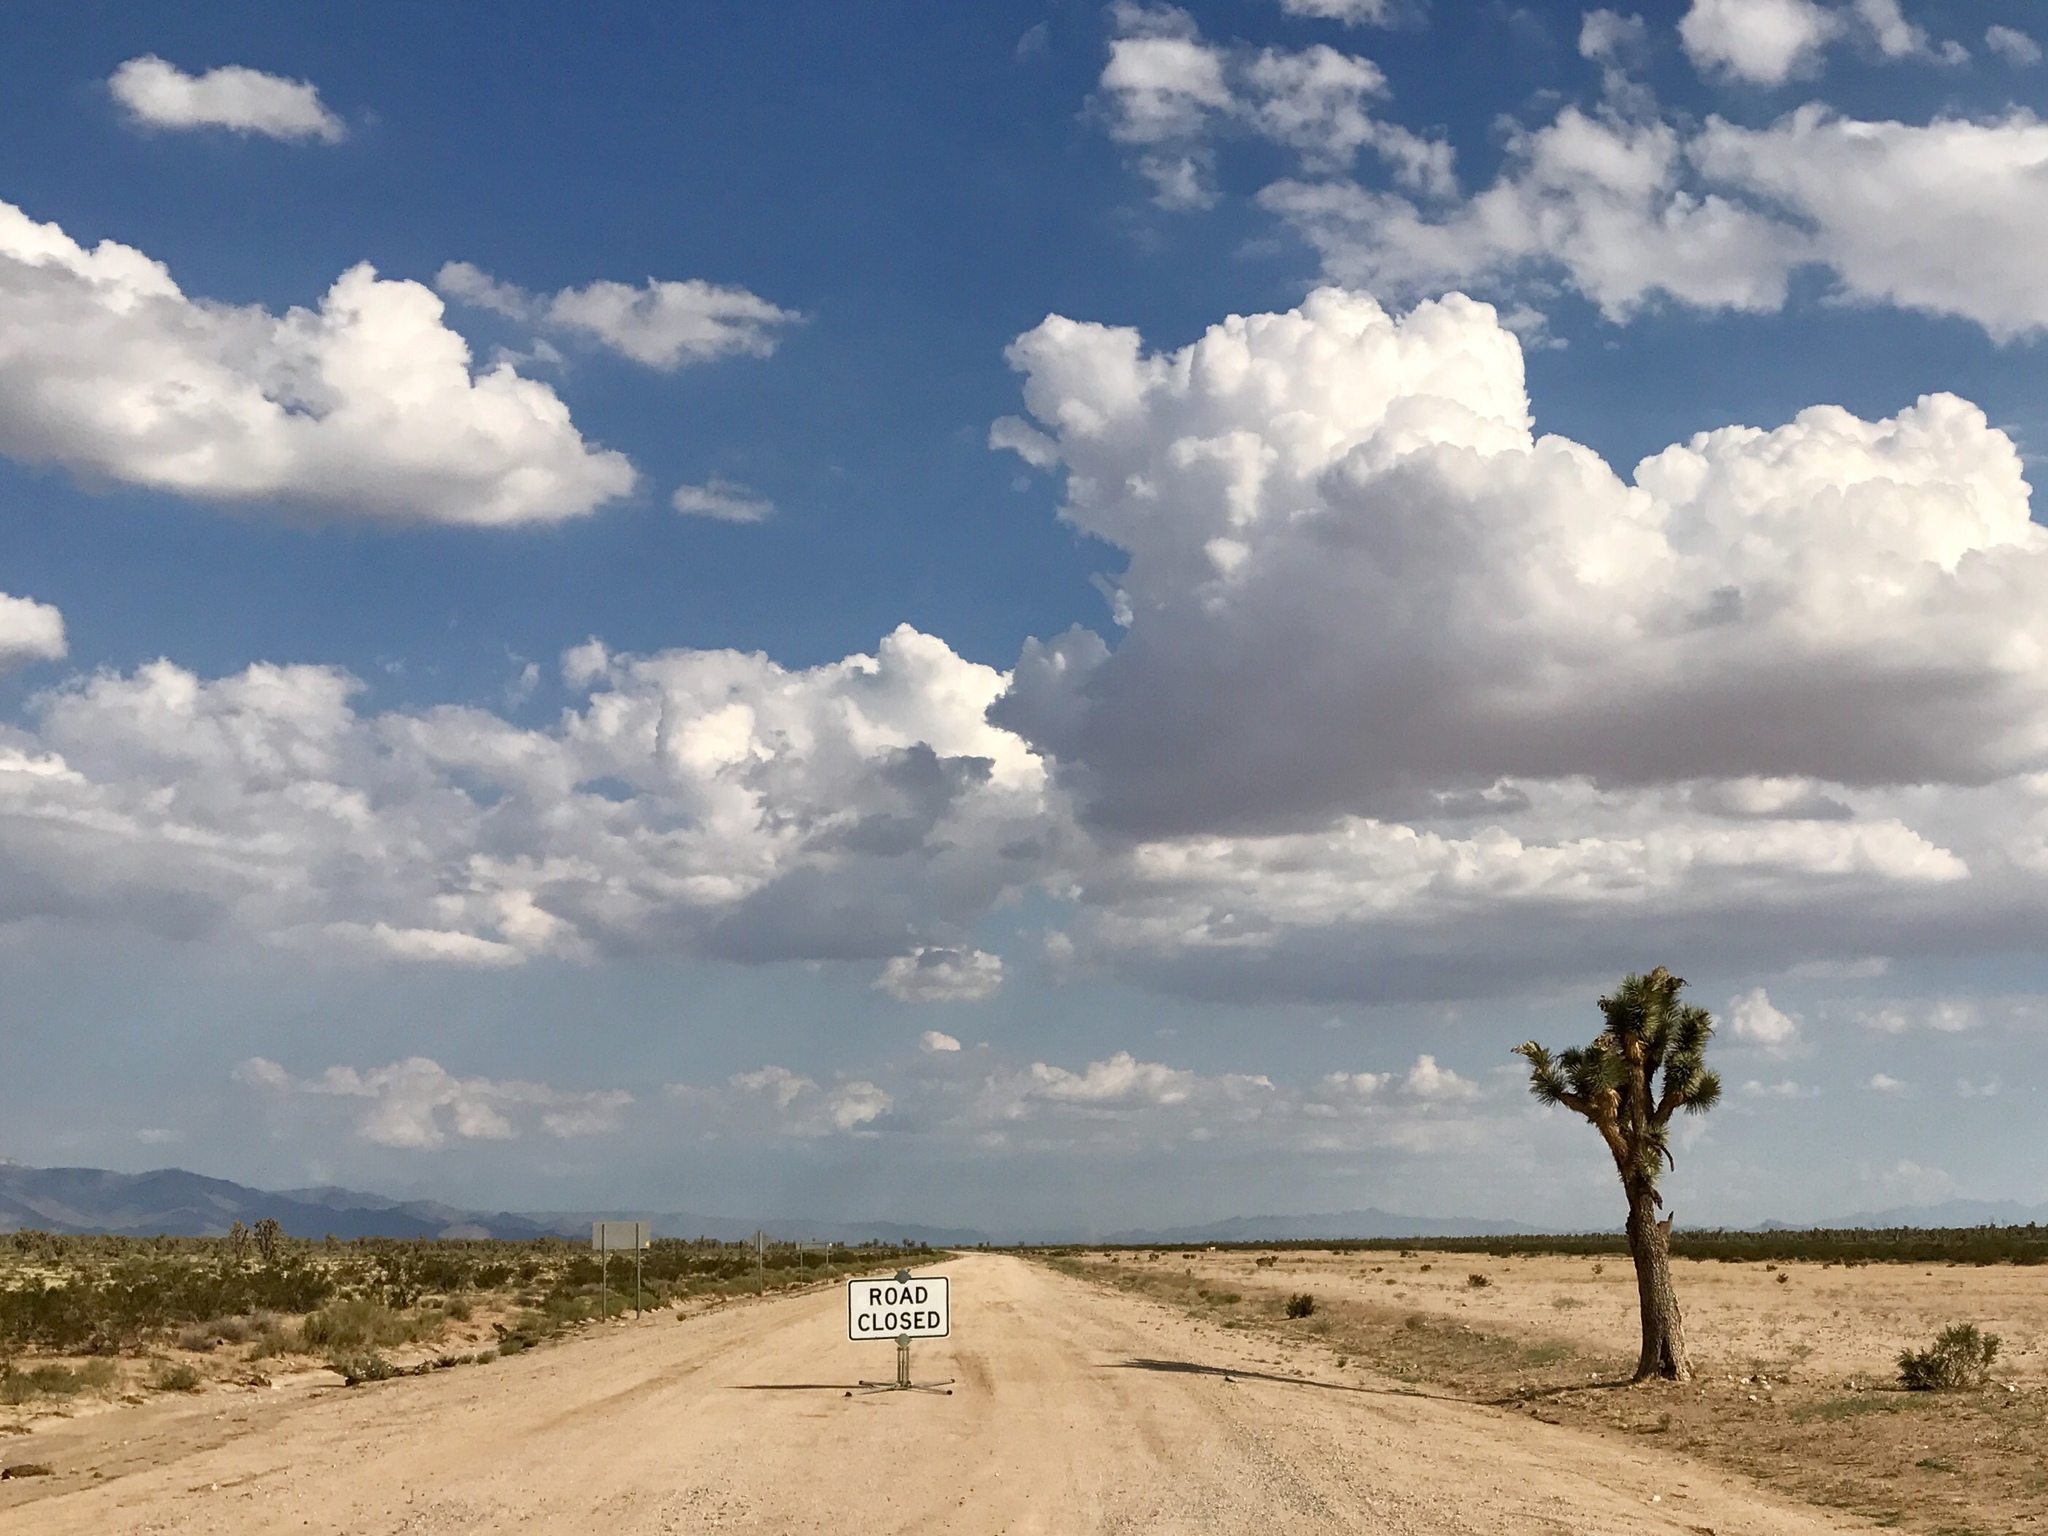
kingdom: Plantae
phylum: Tracheophyta
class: Liliopsida
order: Asparagales
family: Asparagaceae
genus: Yucca
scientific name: Yucca brevifolia
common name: Joshua tree
